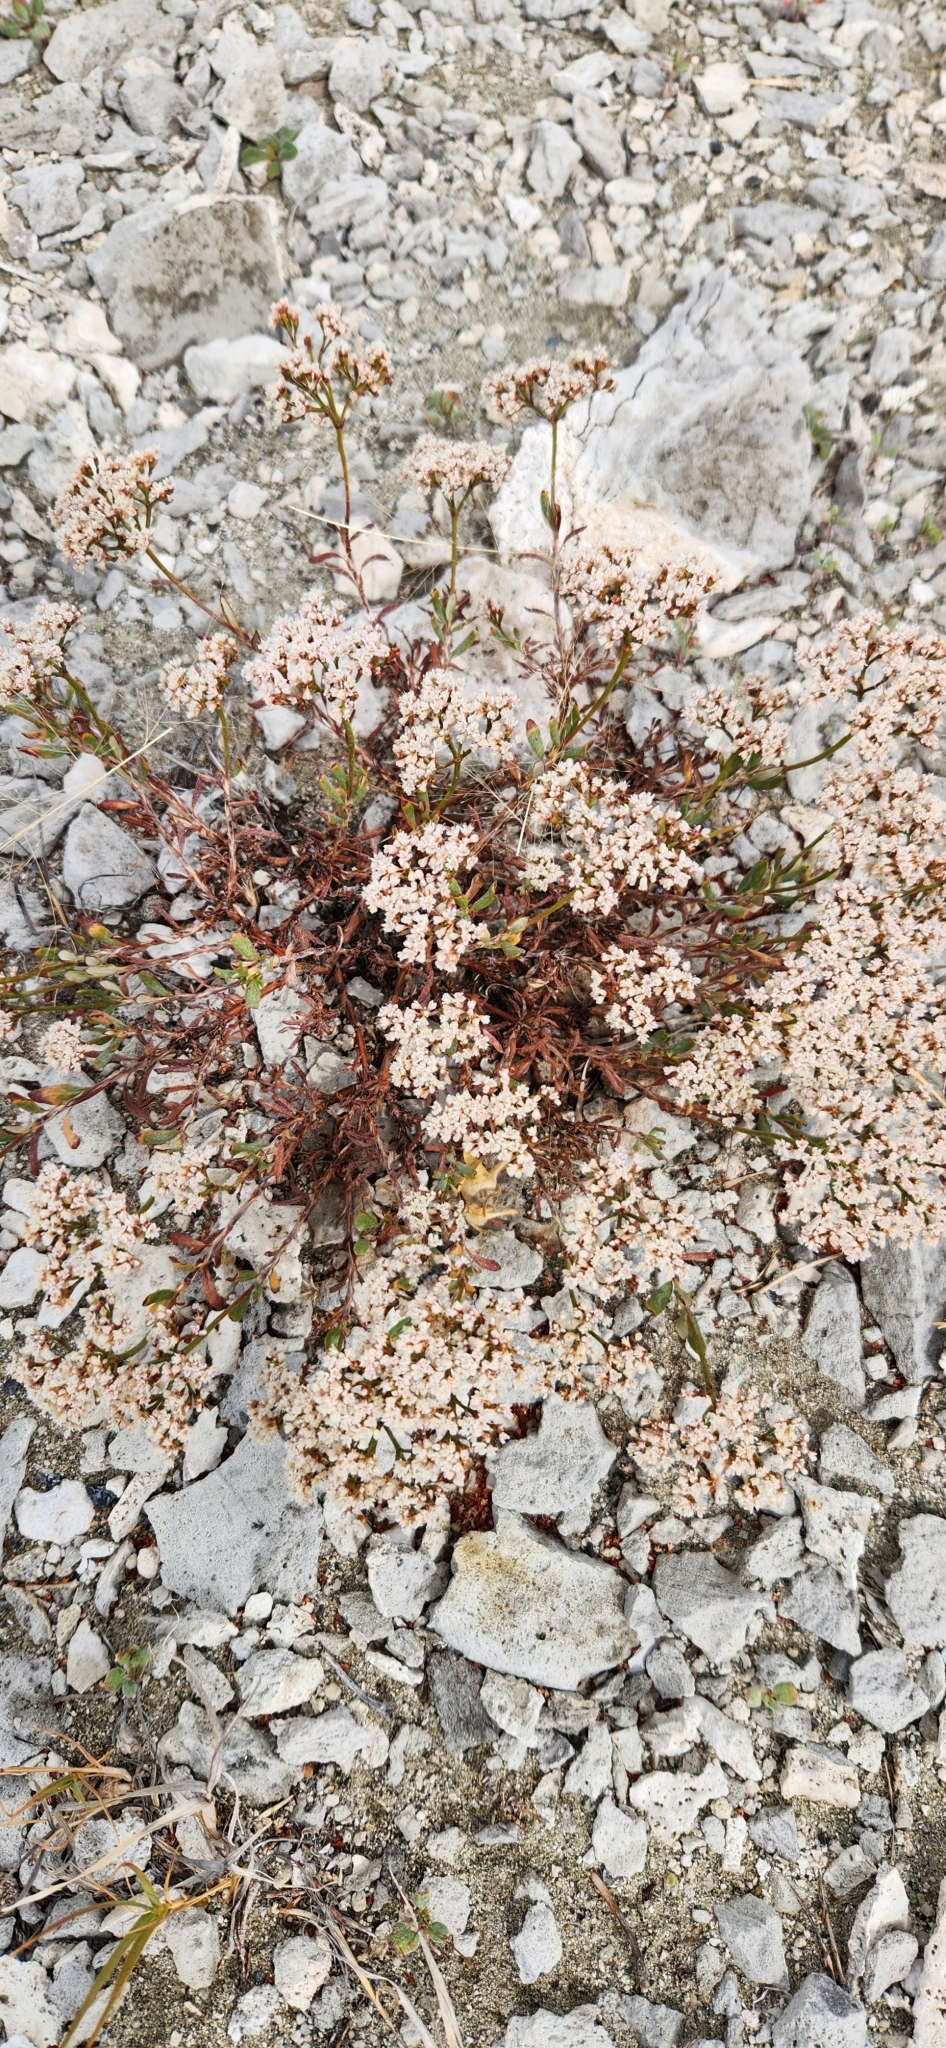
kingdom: Plantae
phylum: Tracheophyta
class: Magnoliopsida
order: Caryophyllales
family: Polygonaceae
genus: Eriogonum
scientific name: Eriogonum microtheca
